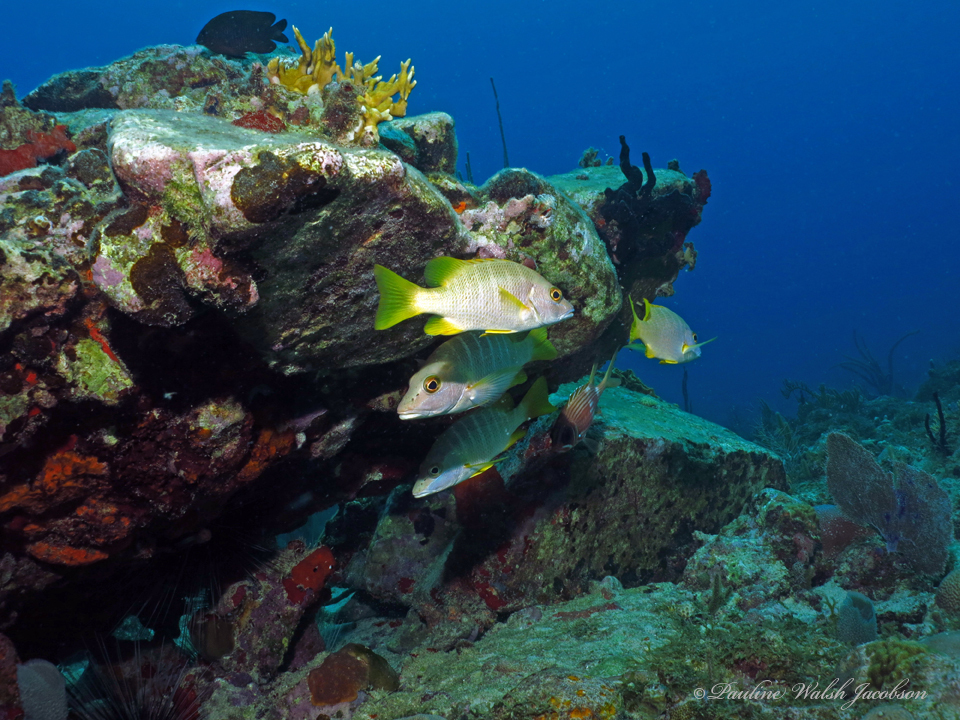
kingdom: Animalia
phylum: Chordata
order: Perciformes
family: Lutjanidae
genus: Lutjanus
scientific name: Lutjanus apodus
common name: Schoolmaster
